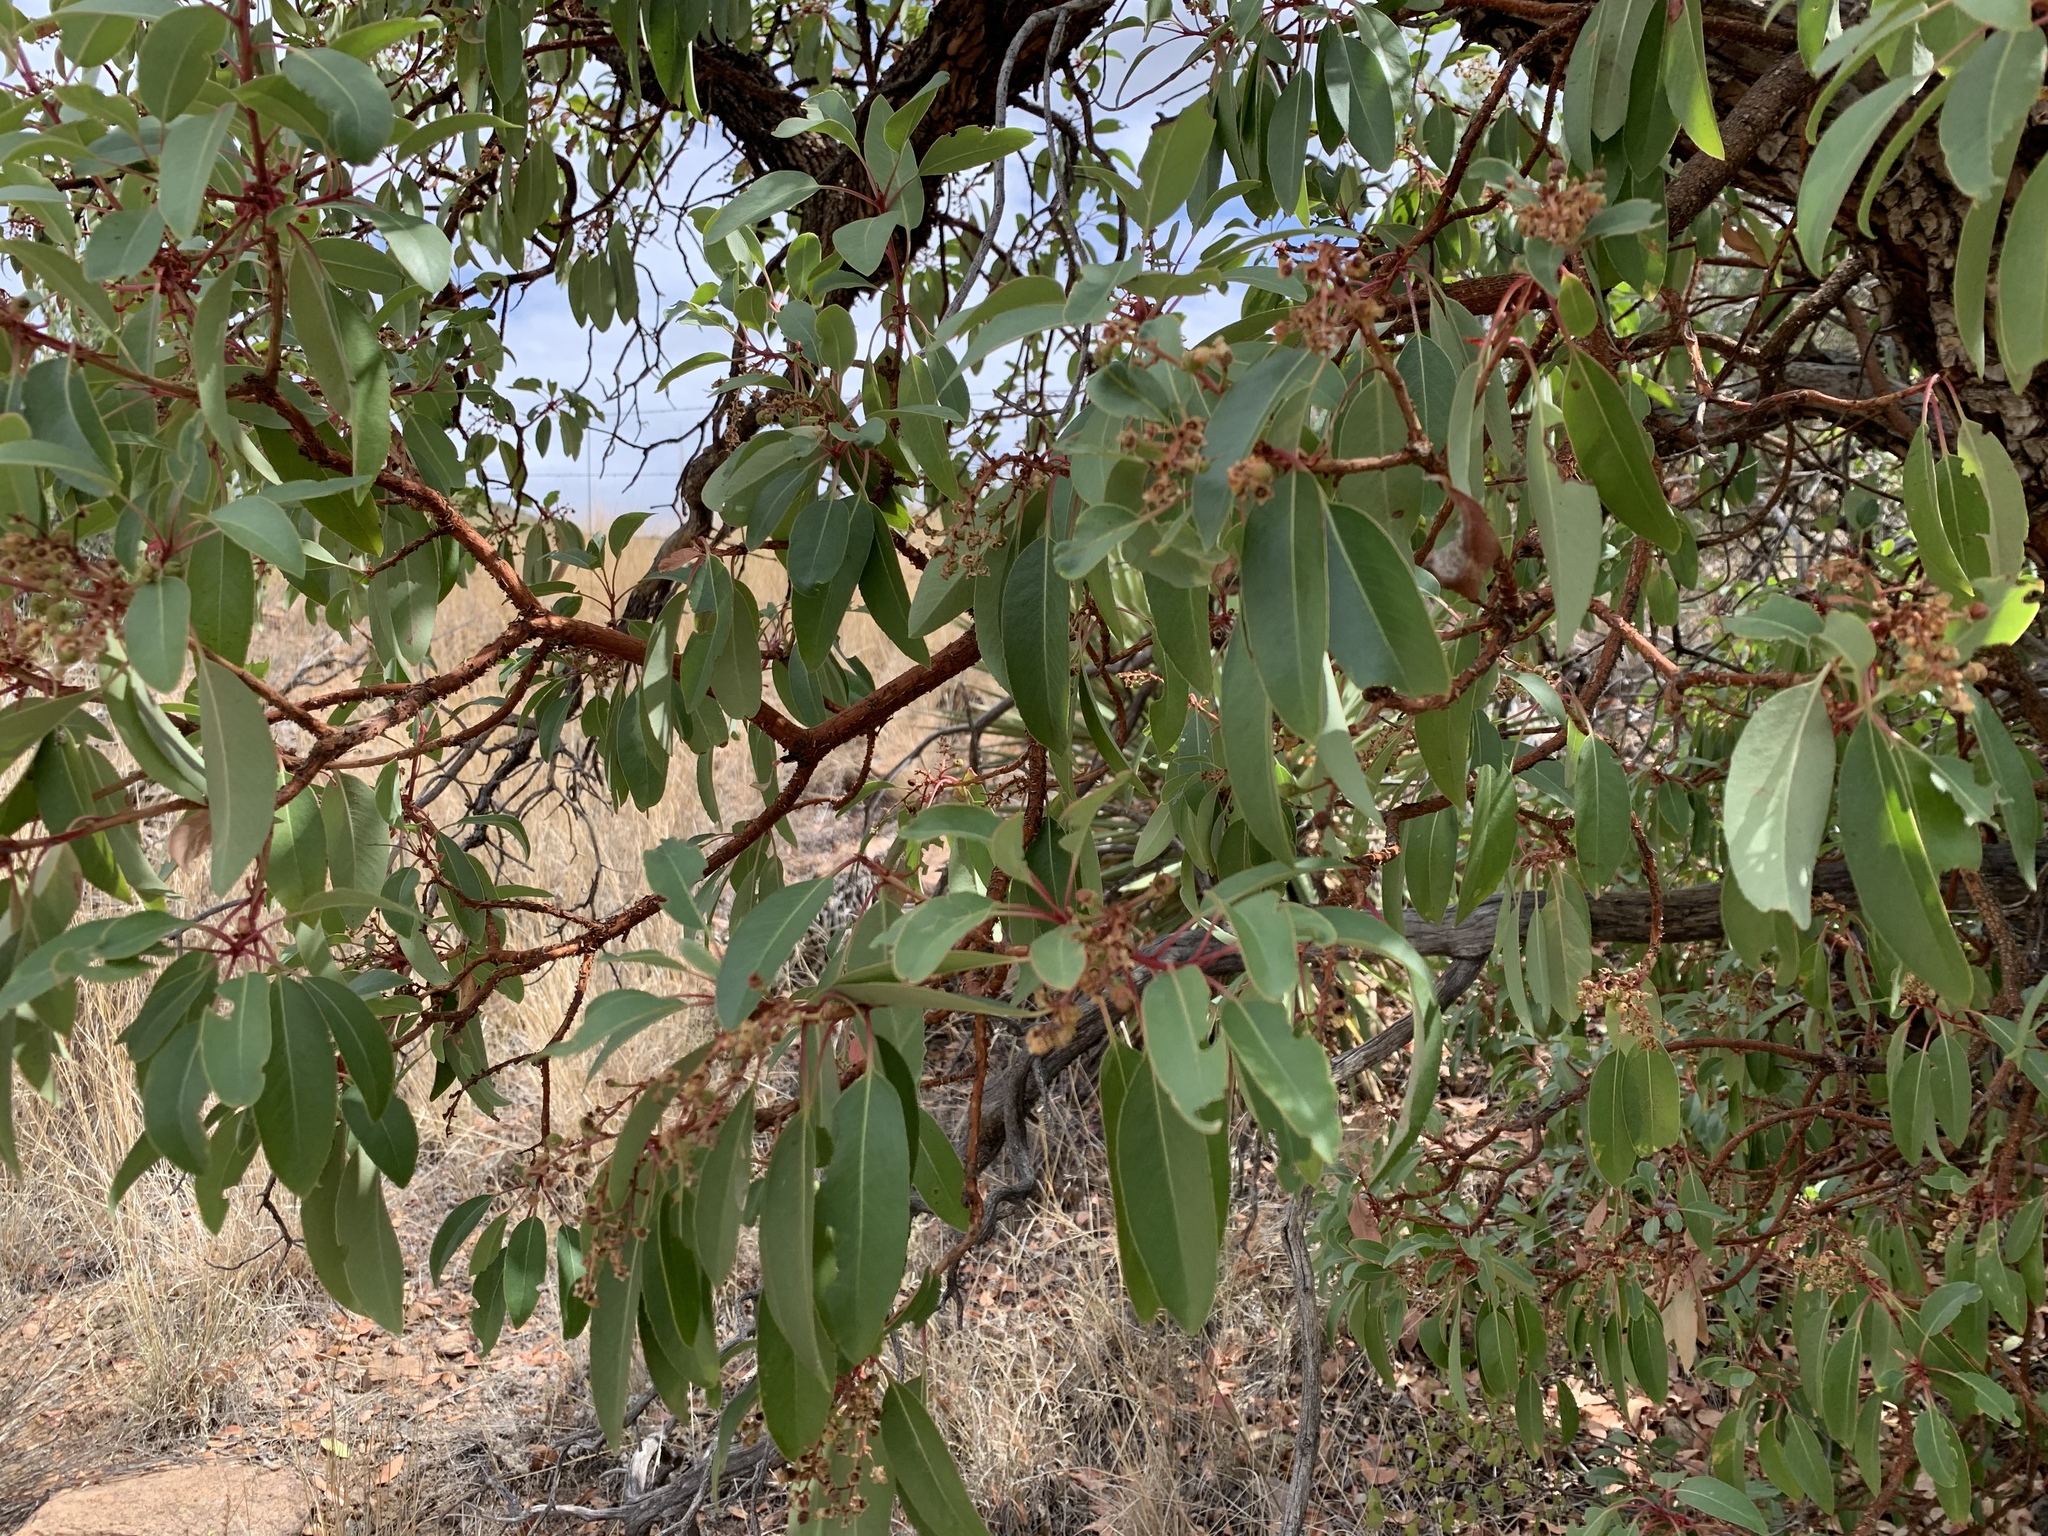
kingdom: Plantae
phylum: Tracheophyta
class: Magnoliopsida
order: Ericales
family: Ericaceae
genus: Arbutus
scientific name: Arbutus arizonica
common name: Arizona madrone
